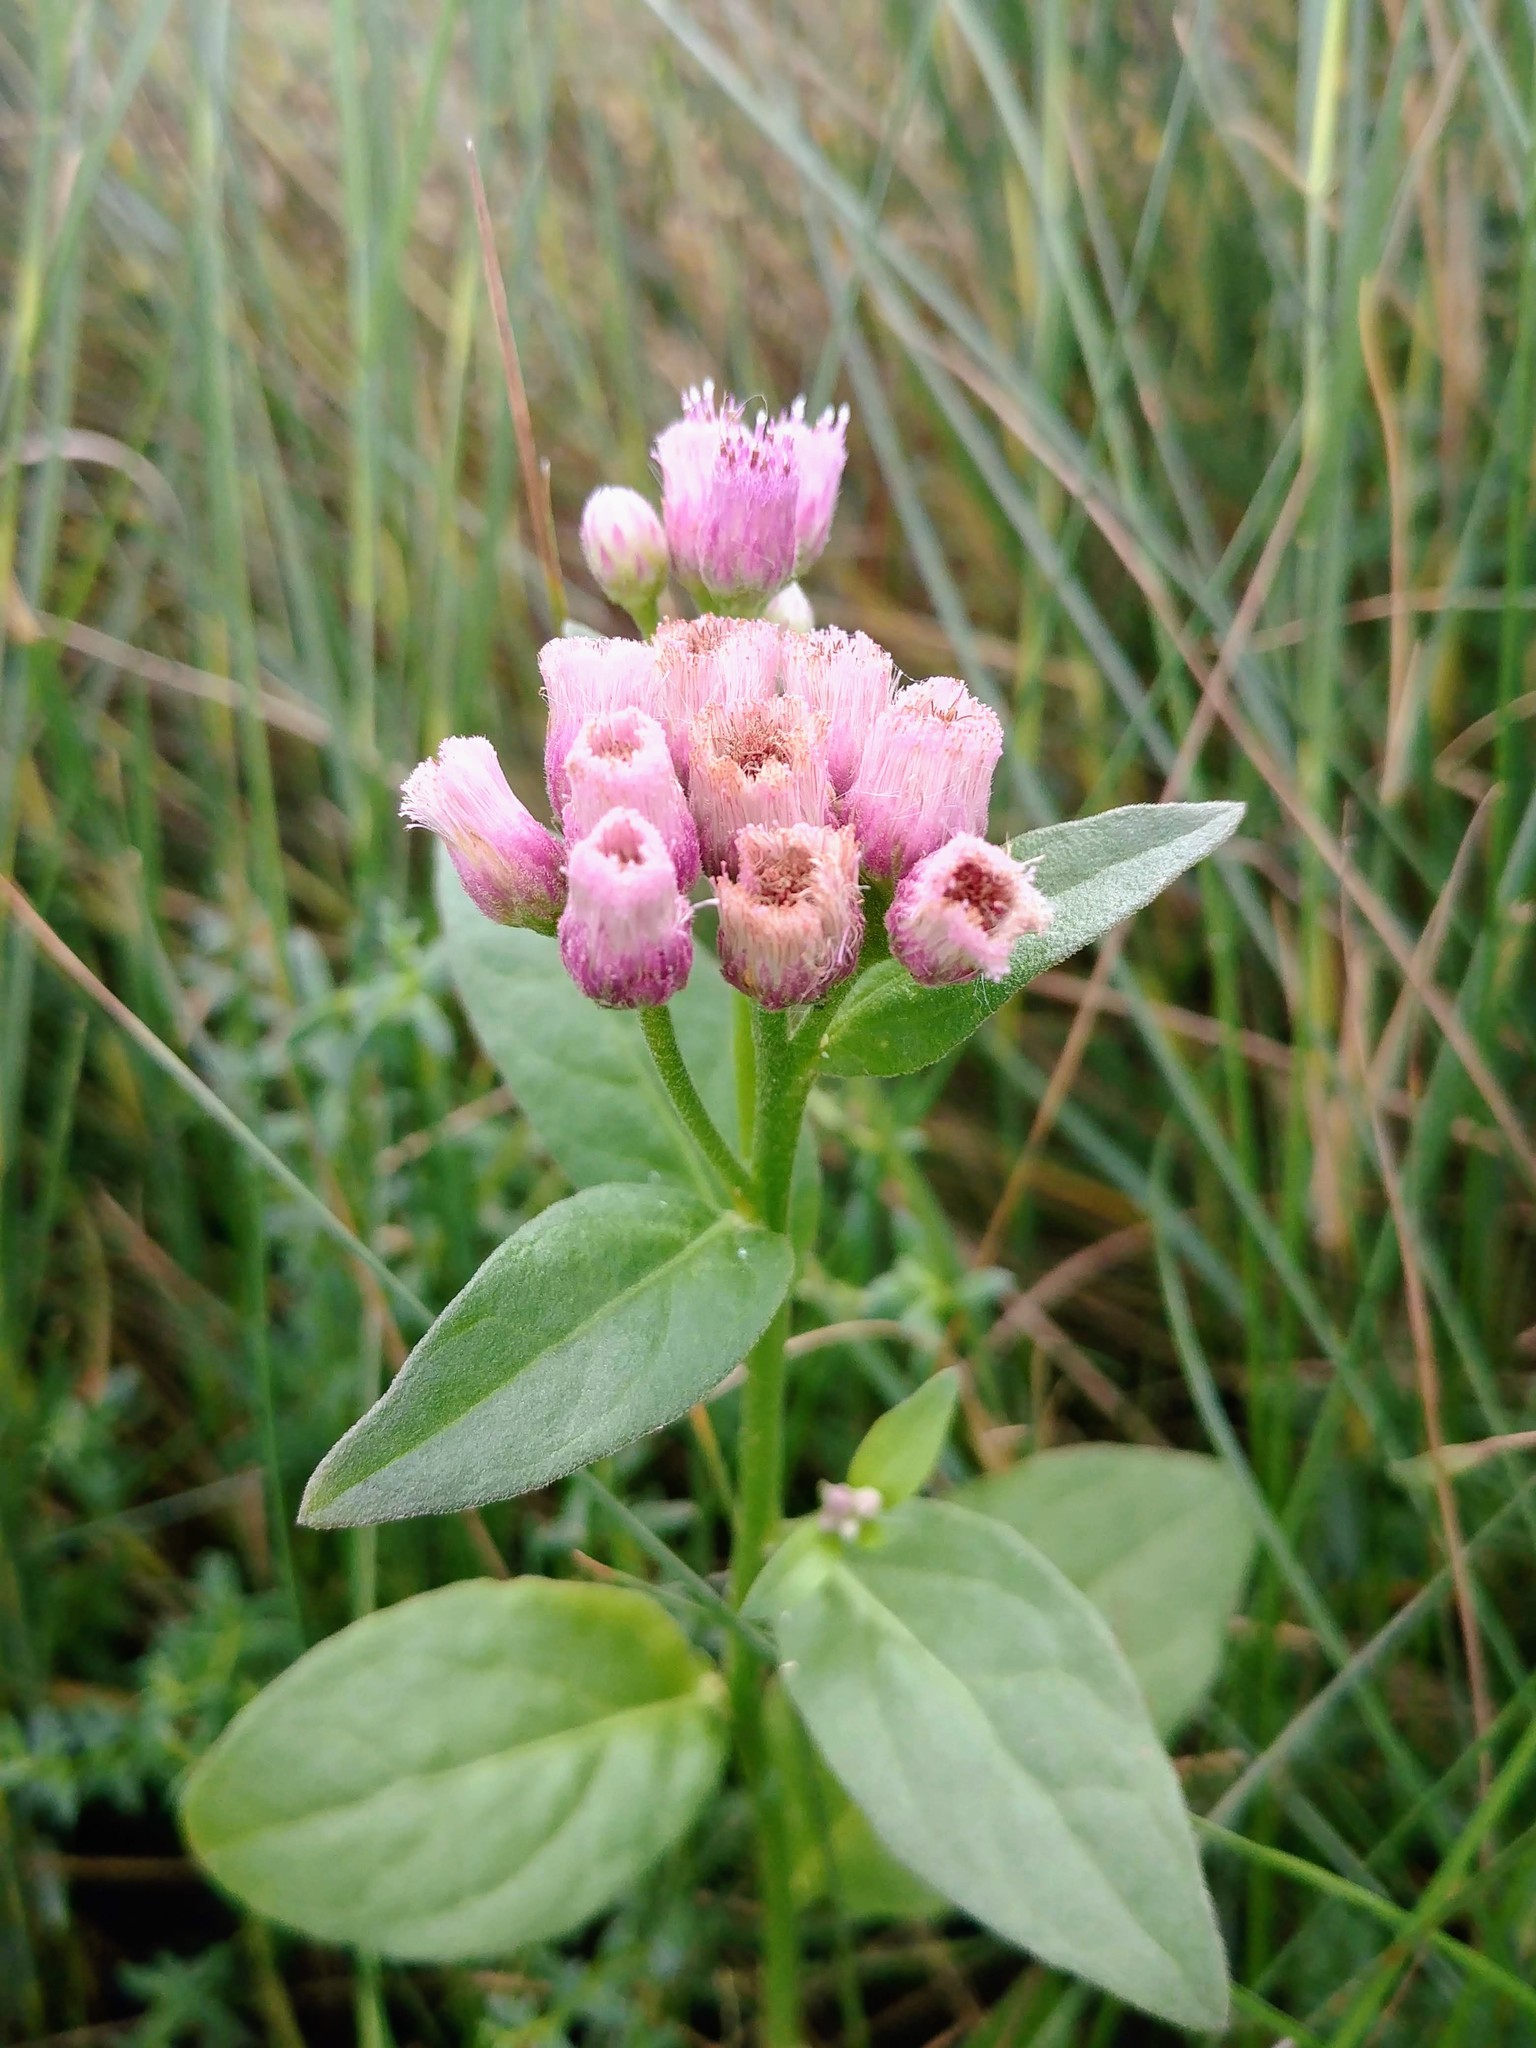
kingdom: Plantae
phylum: Tracheophyta
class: Magnoliopsida
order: Asterales
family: Asteraceae
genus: Pluchea
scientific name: Pluchea odorata
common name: Saltmarsh fleabane
